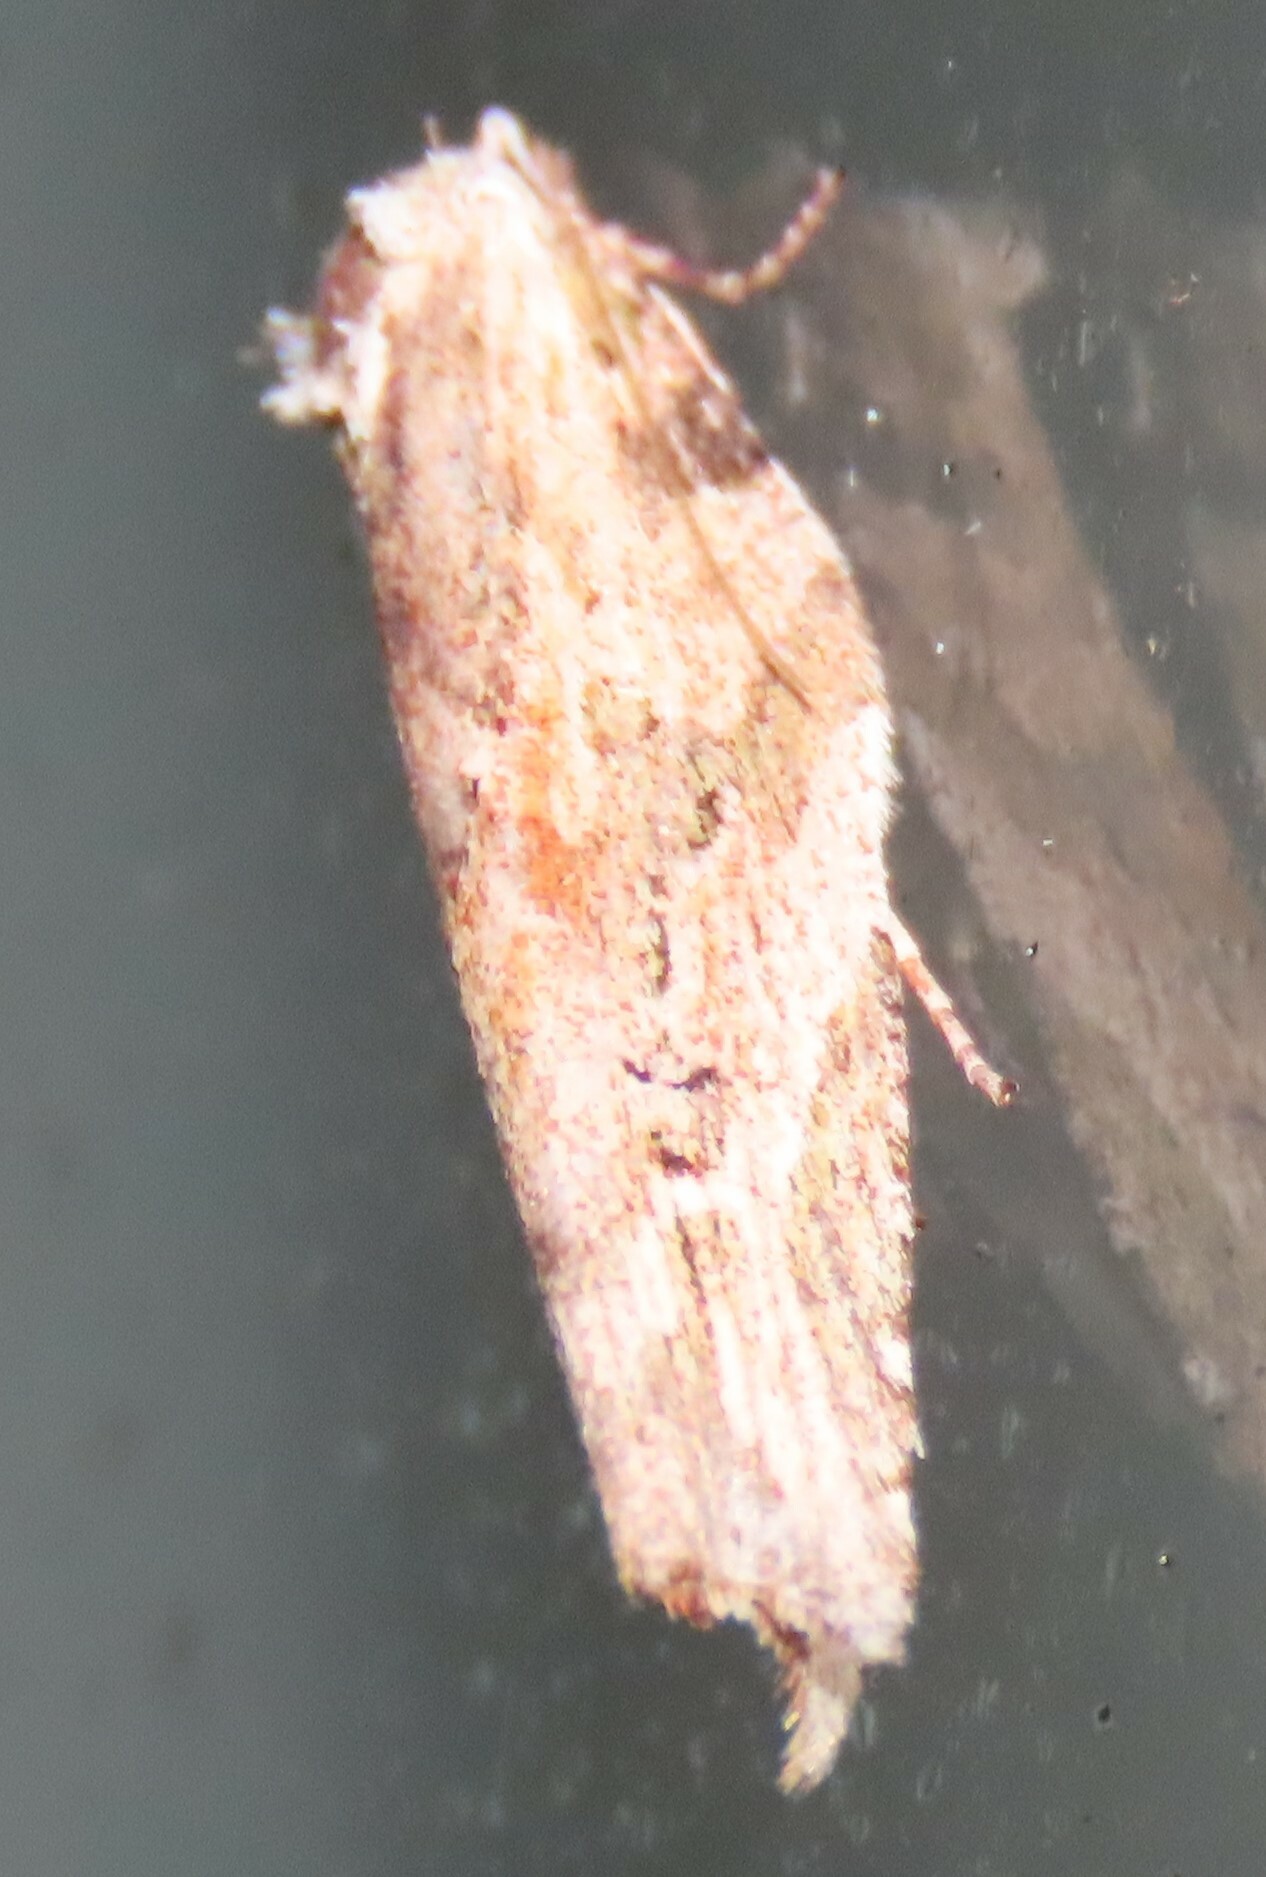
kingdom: Animalia
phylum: Arthropoda
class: Insecta
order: Lepidoptera
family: Tortricidae
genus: Epalxiphora
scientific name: Epalxiphora axenana
